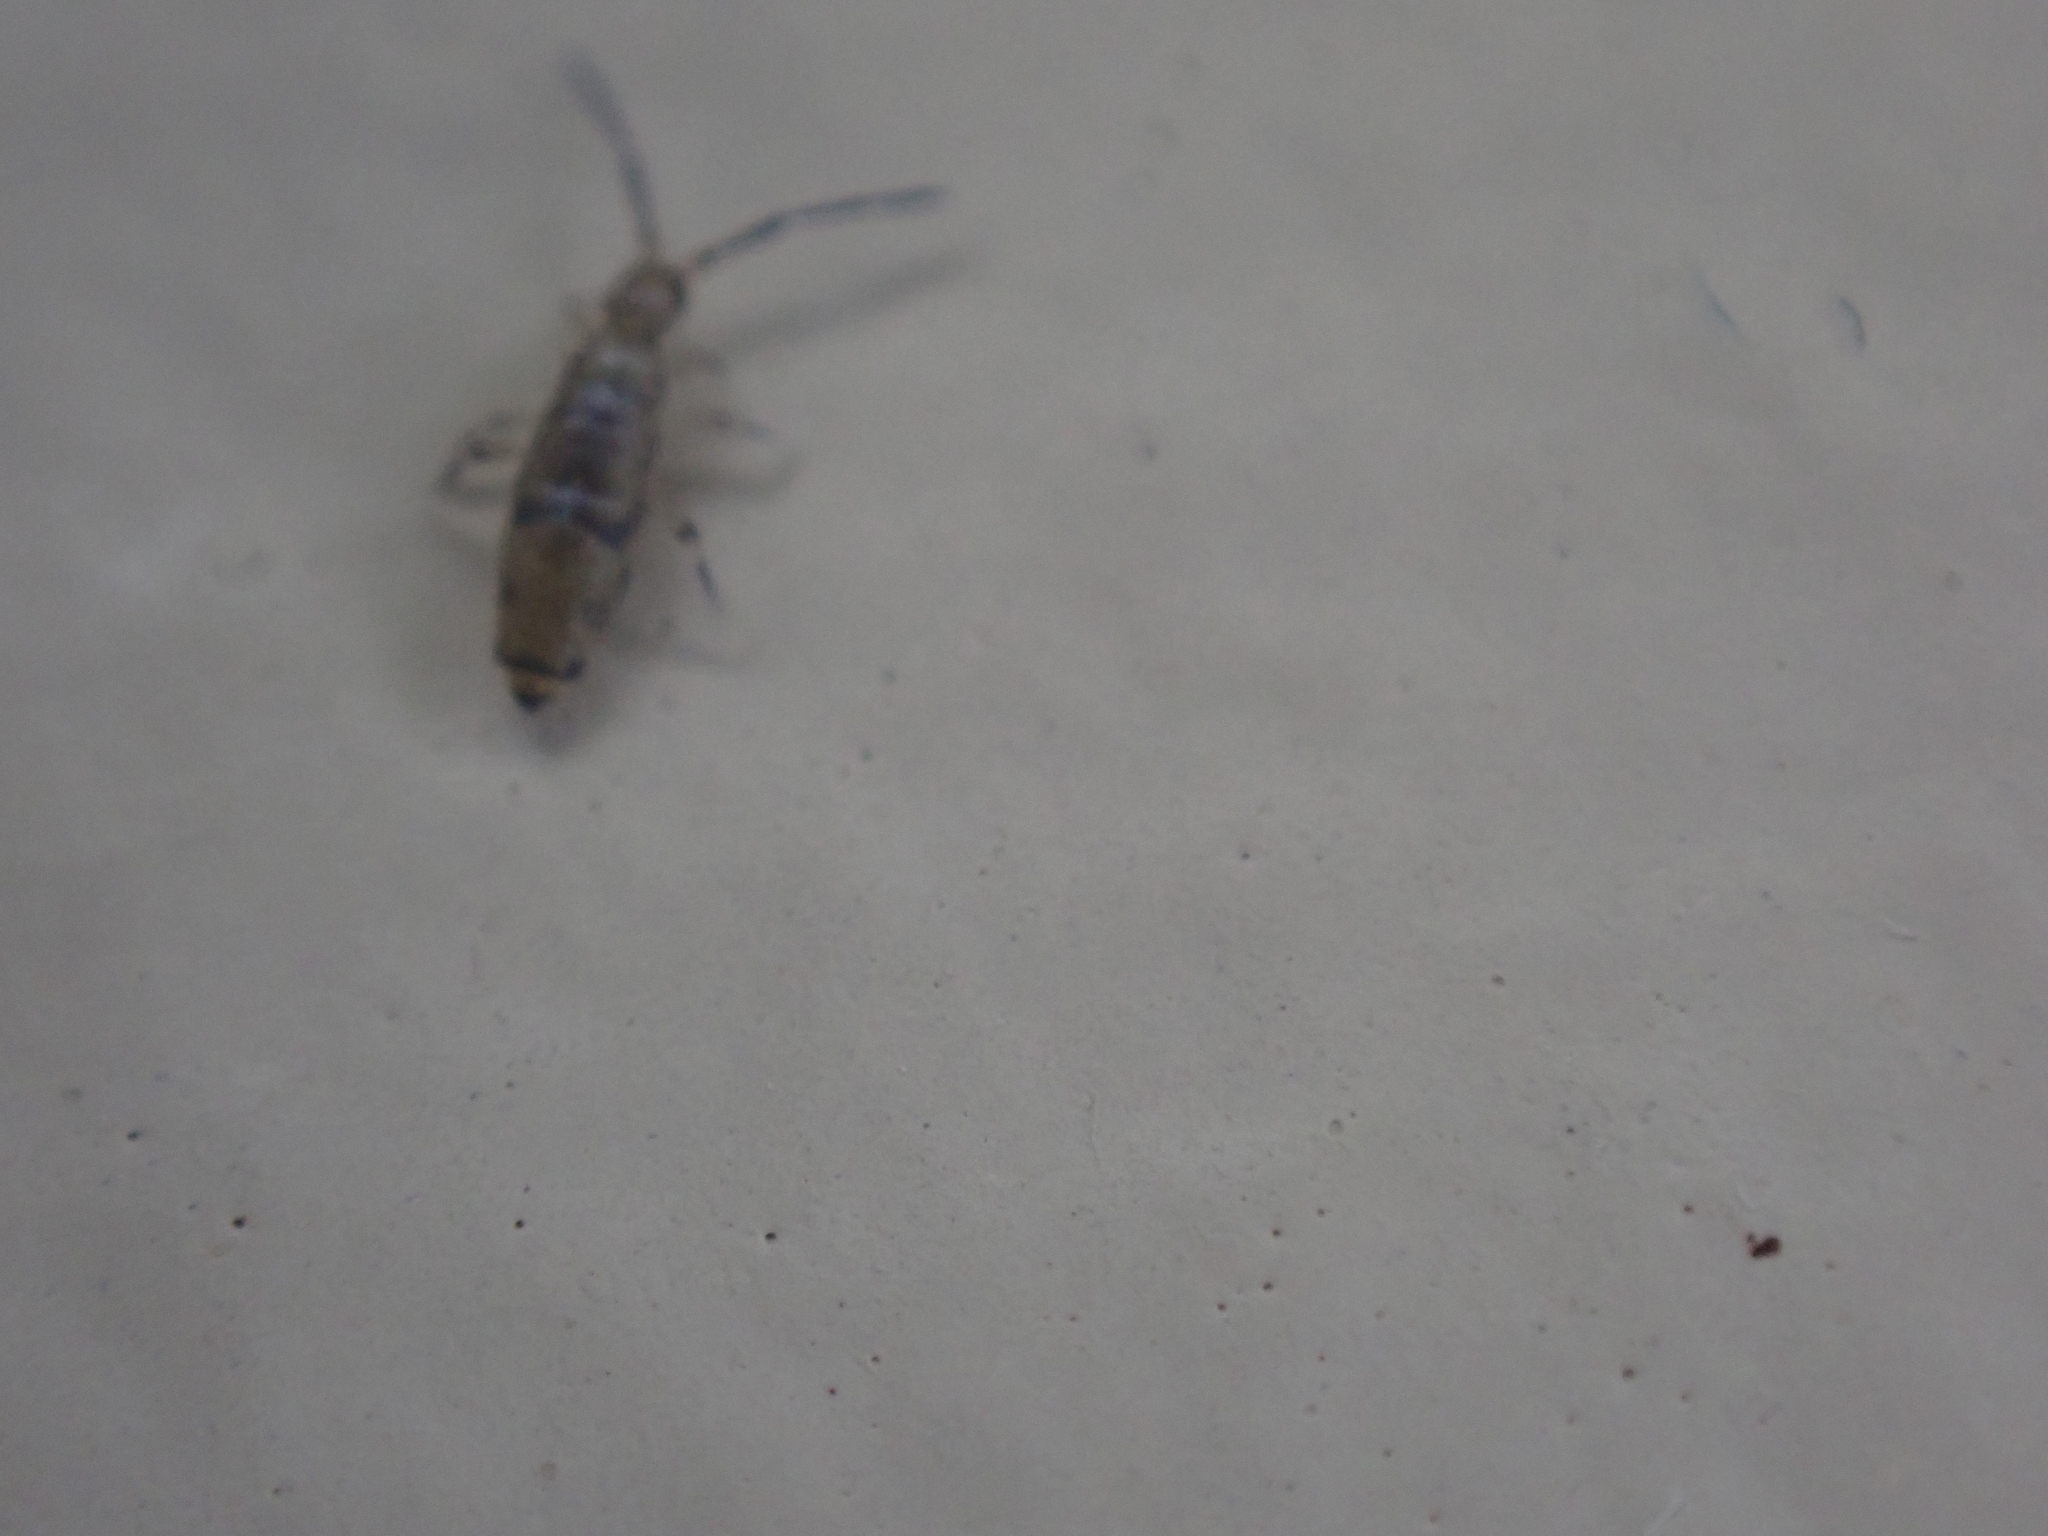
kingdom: Animalia
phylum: Arthropoda
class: Collembola
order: Entomobryomorpha
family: Entomobryidae
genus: Willowsia
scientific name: Willowsia nigromaculata
